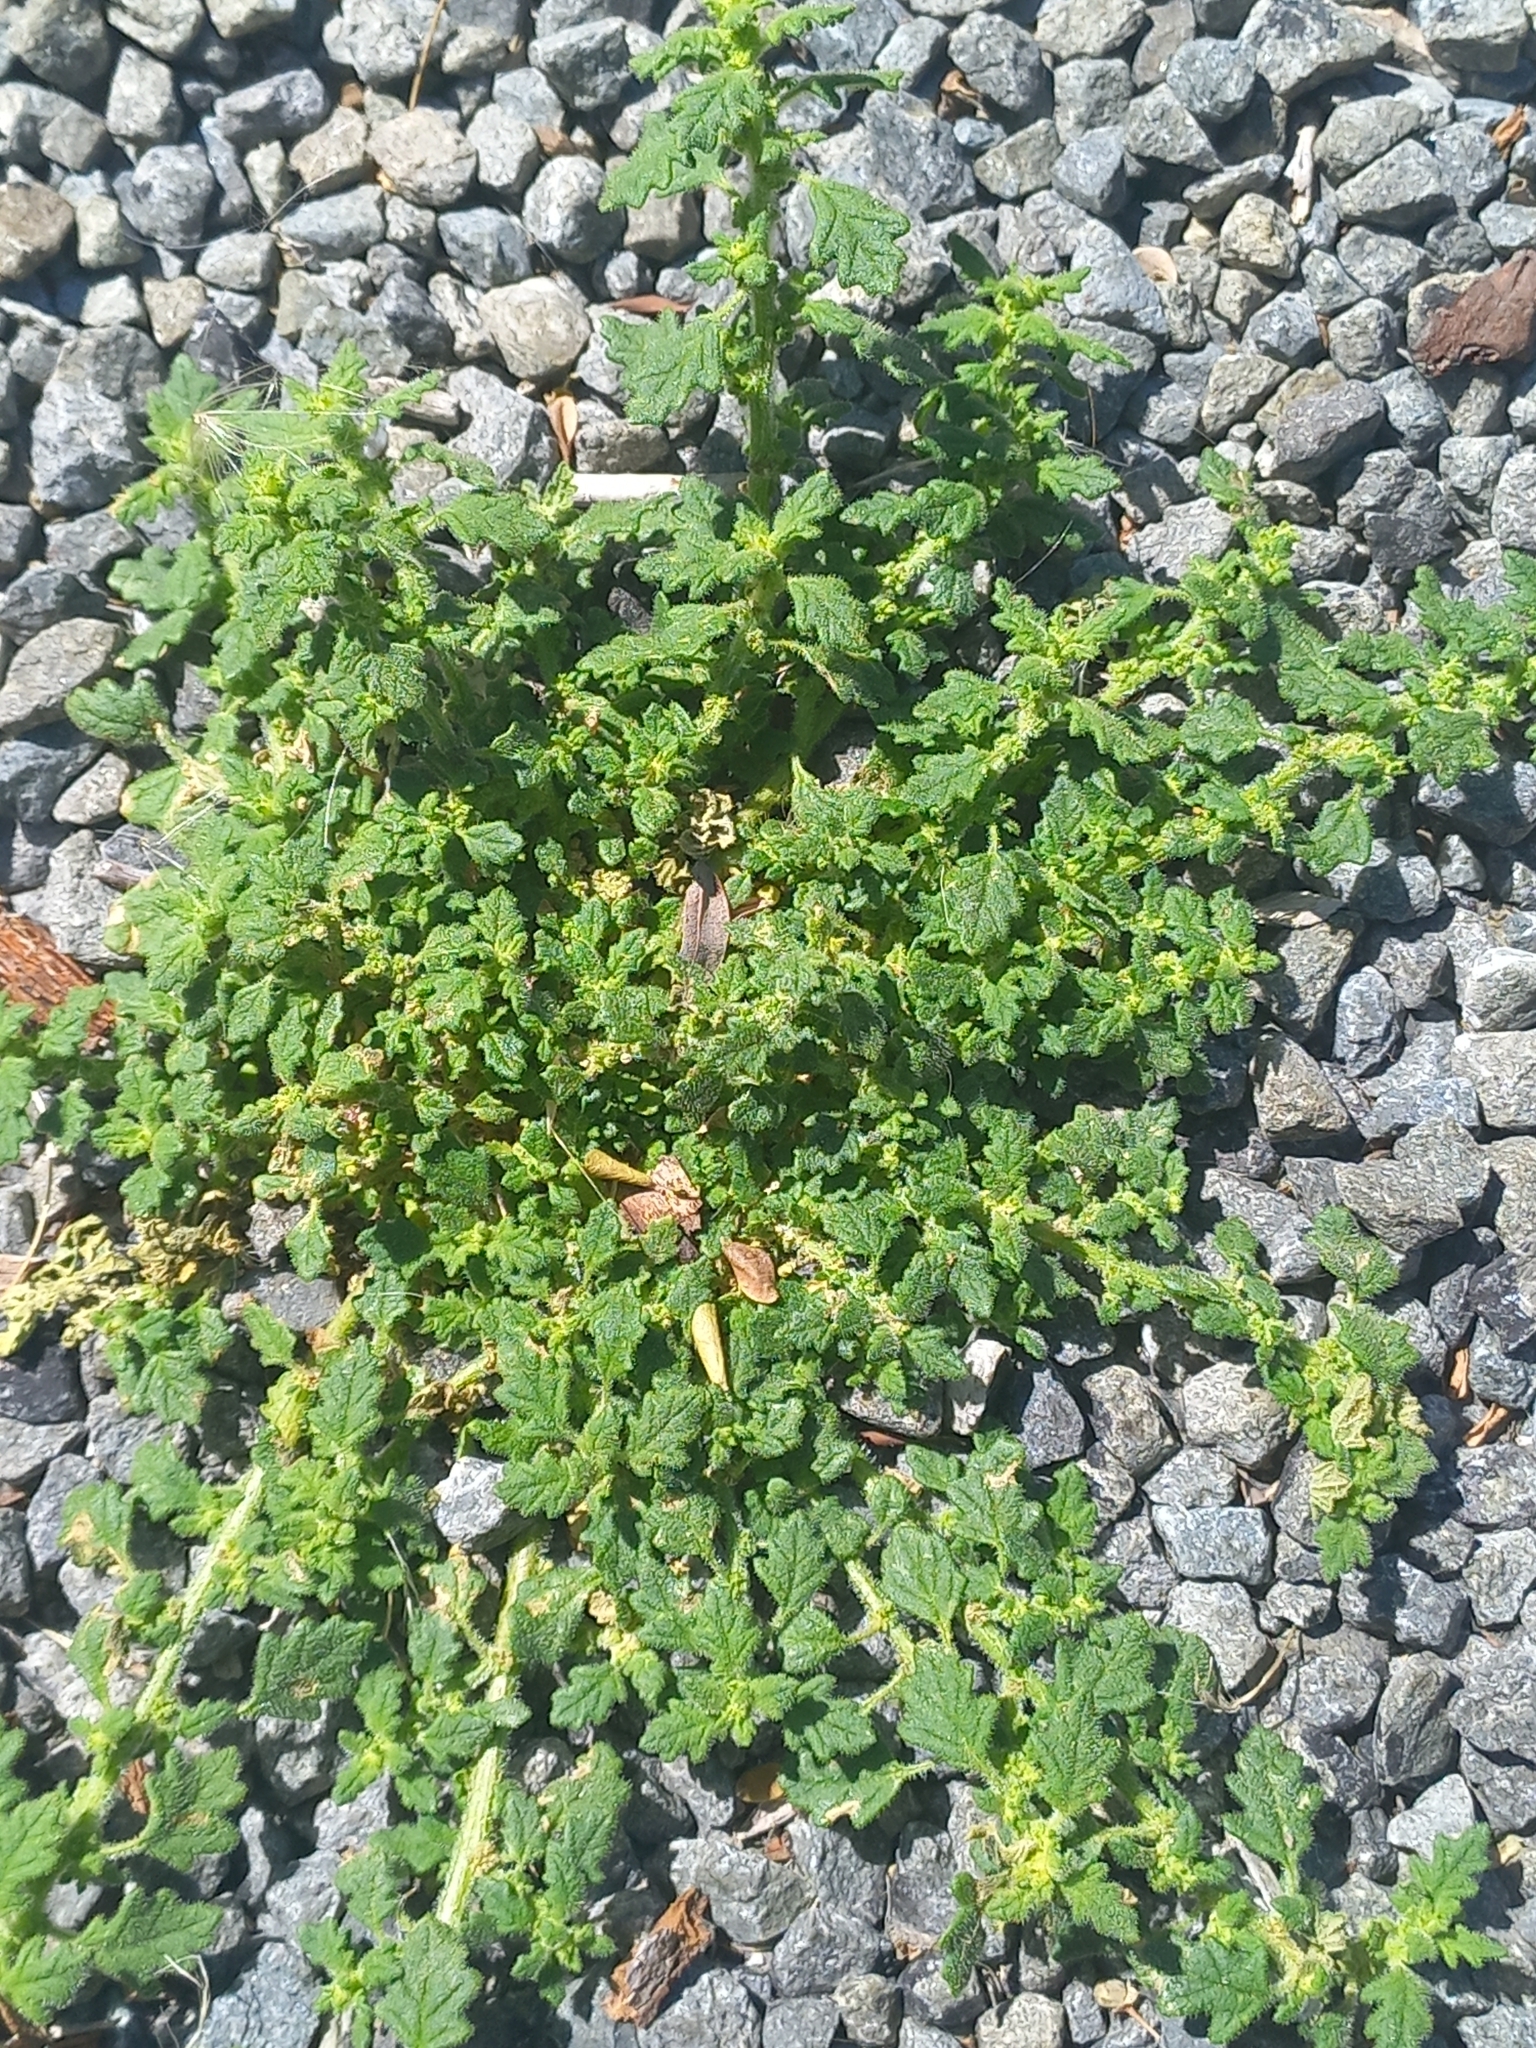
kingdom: Plantae
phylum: Tracheophyta
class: Magnoliopsida
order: Caryophyllales
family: Amaranthaceae
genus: Dysphania
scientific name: Dysphania pumilio
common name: Clammy goosefoot
